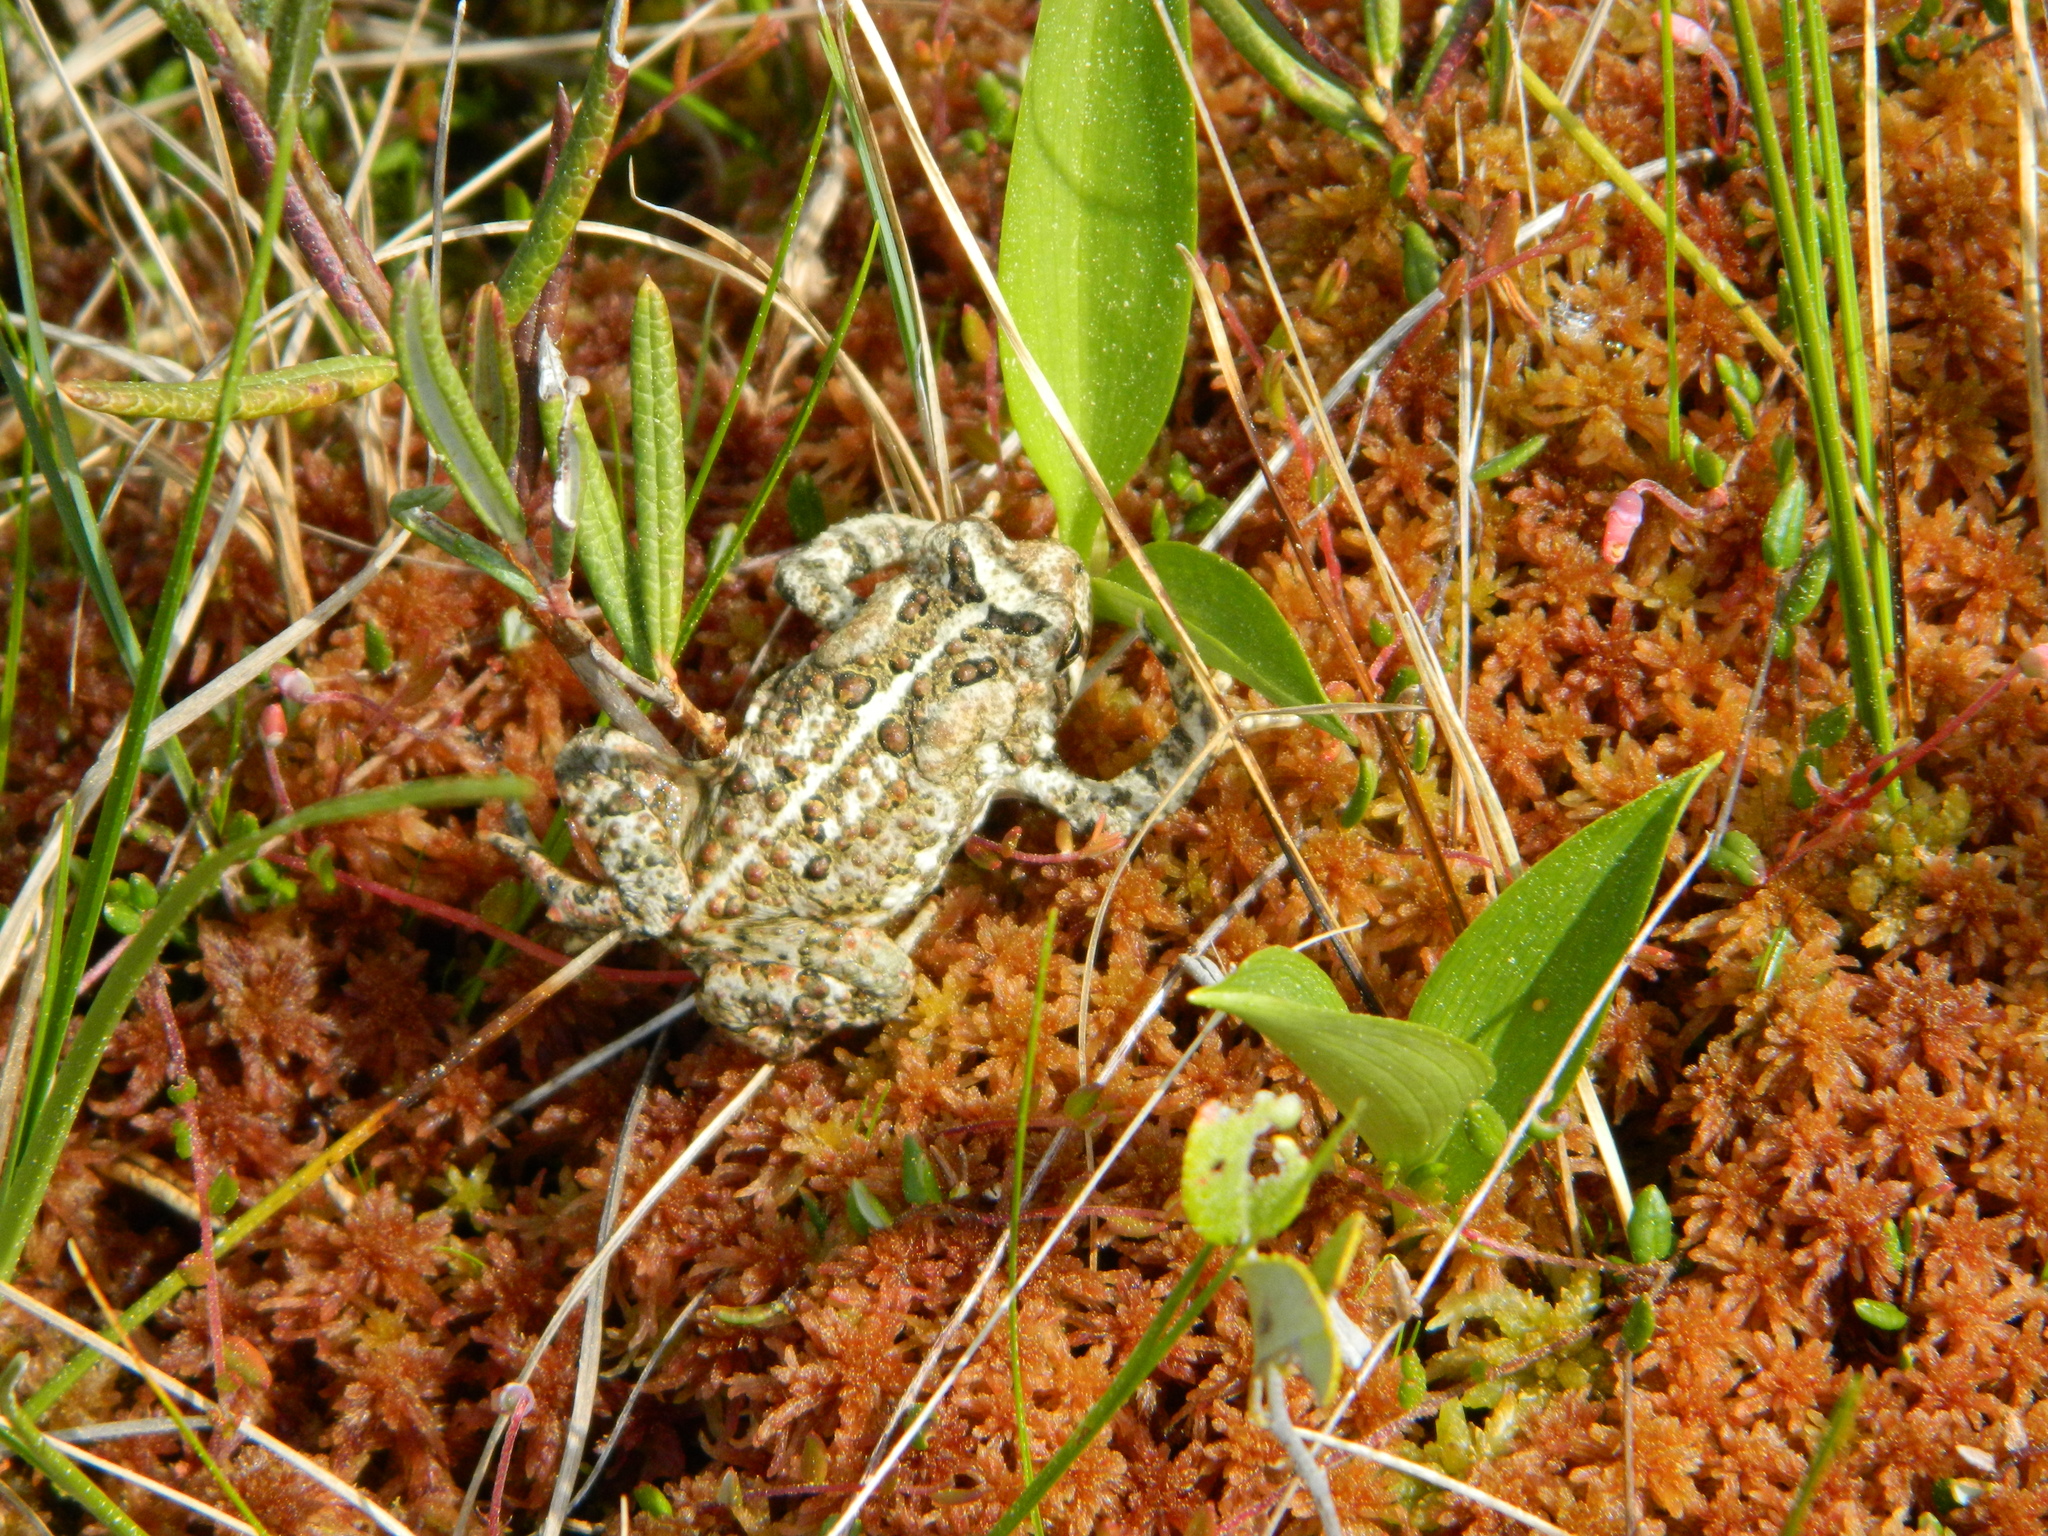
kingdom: Animalia
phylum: Chordata
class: Amphibia
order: Anura
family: Bufonidae
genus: Anaxyrus
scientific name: Anaxyrus americanus
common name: American toad
